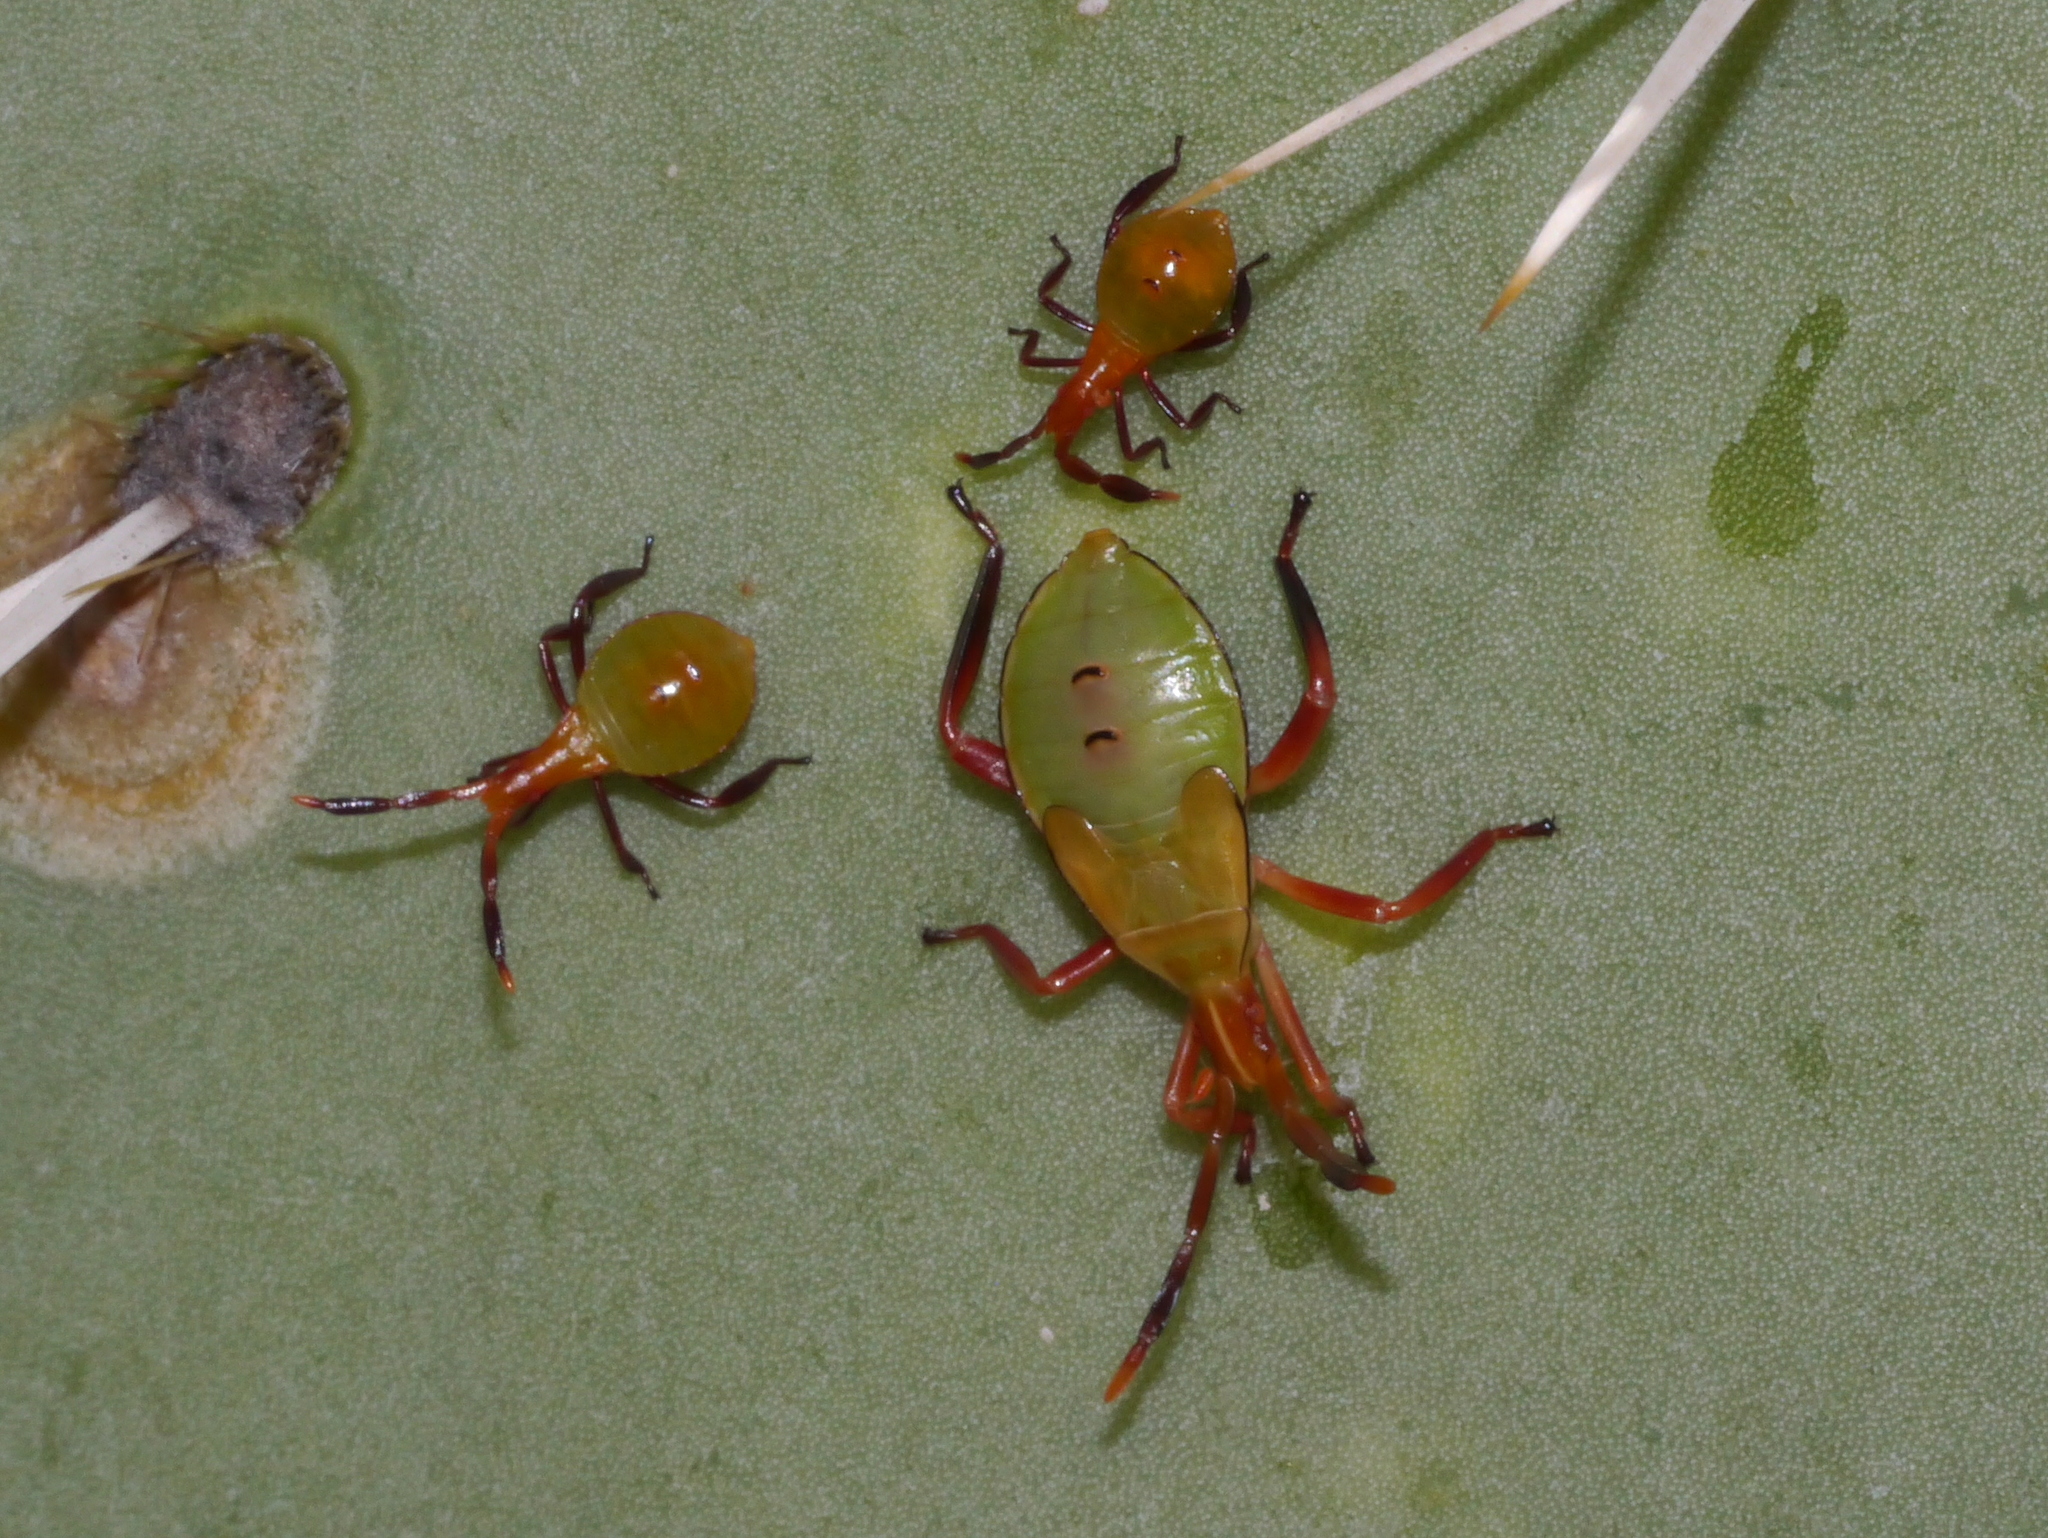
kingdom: Animalia
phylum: Arthropoda
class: Insecta
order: Hemiptera
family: Coreidae
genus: Chelinidea
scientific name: Chelinidea vittiger
